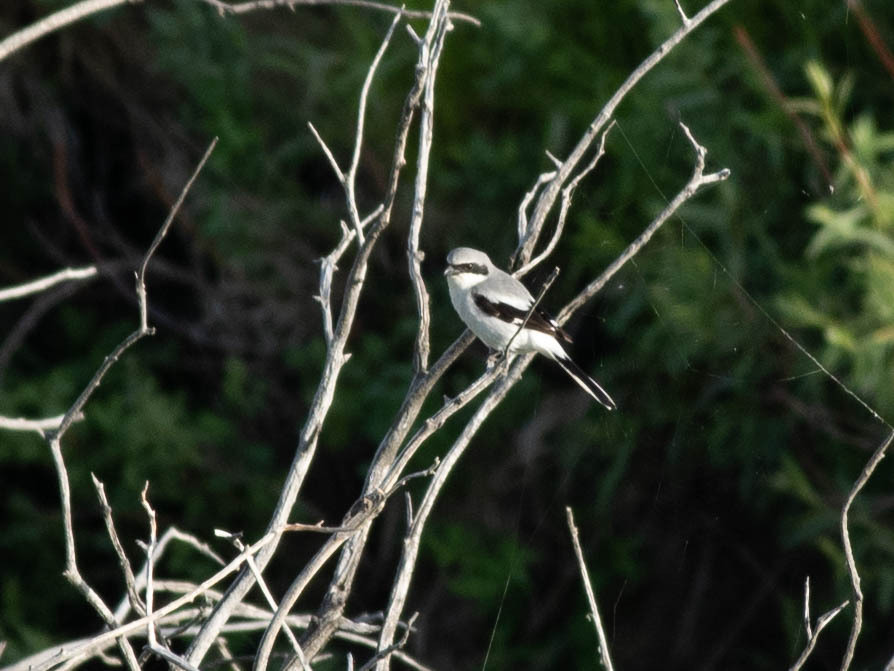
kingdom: Animalia
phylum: Chordata
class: Aves
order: Passeriformes
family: Laniidae
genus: Lanius
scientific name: Lanius ludovicianus
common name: Loggerhead shrike
